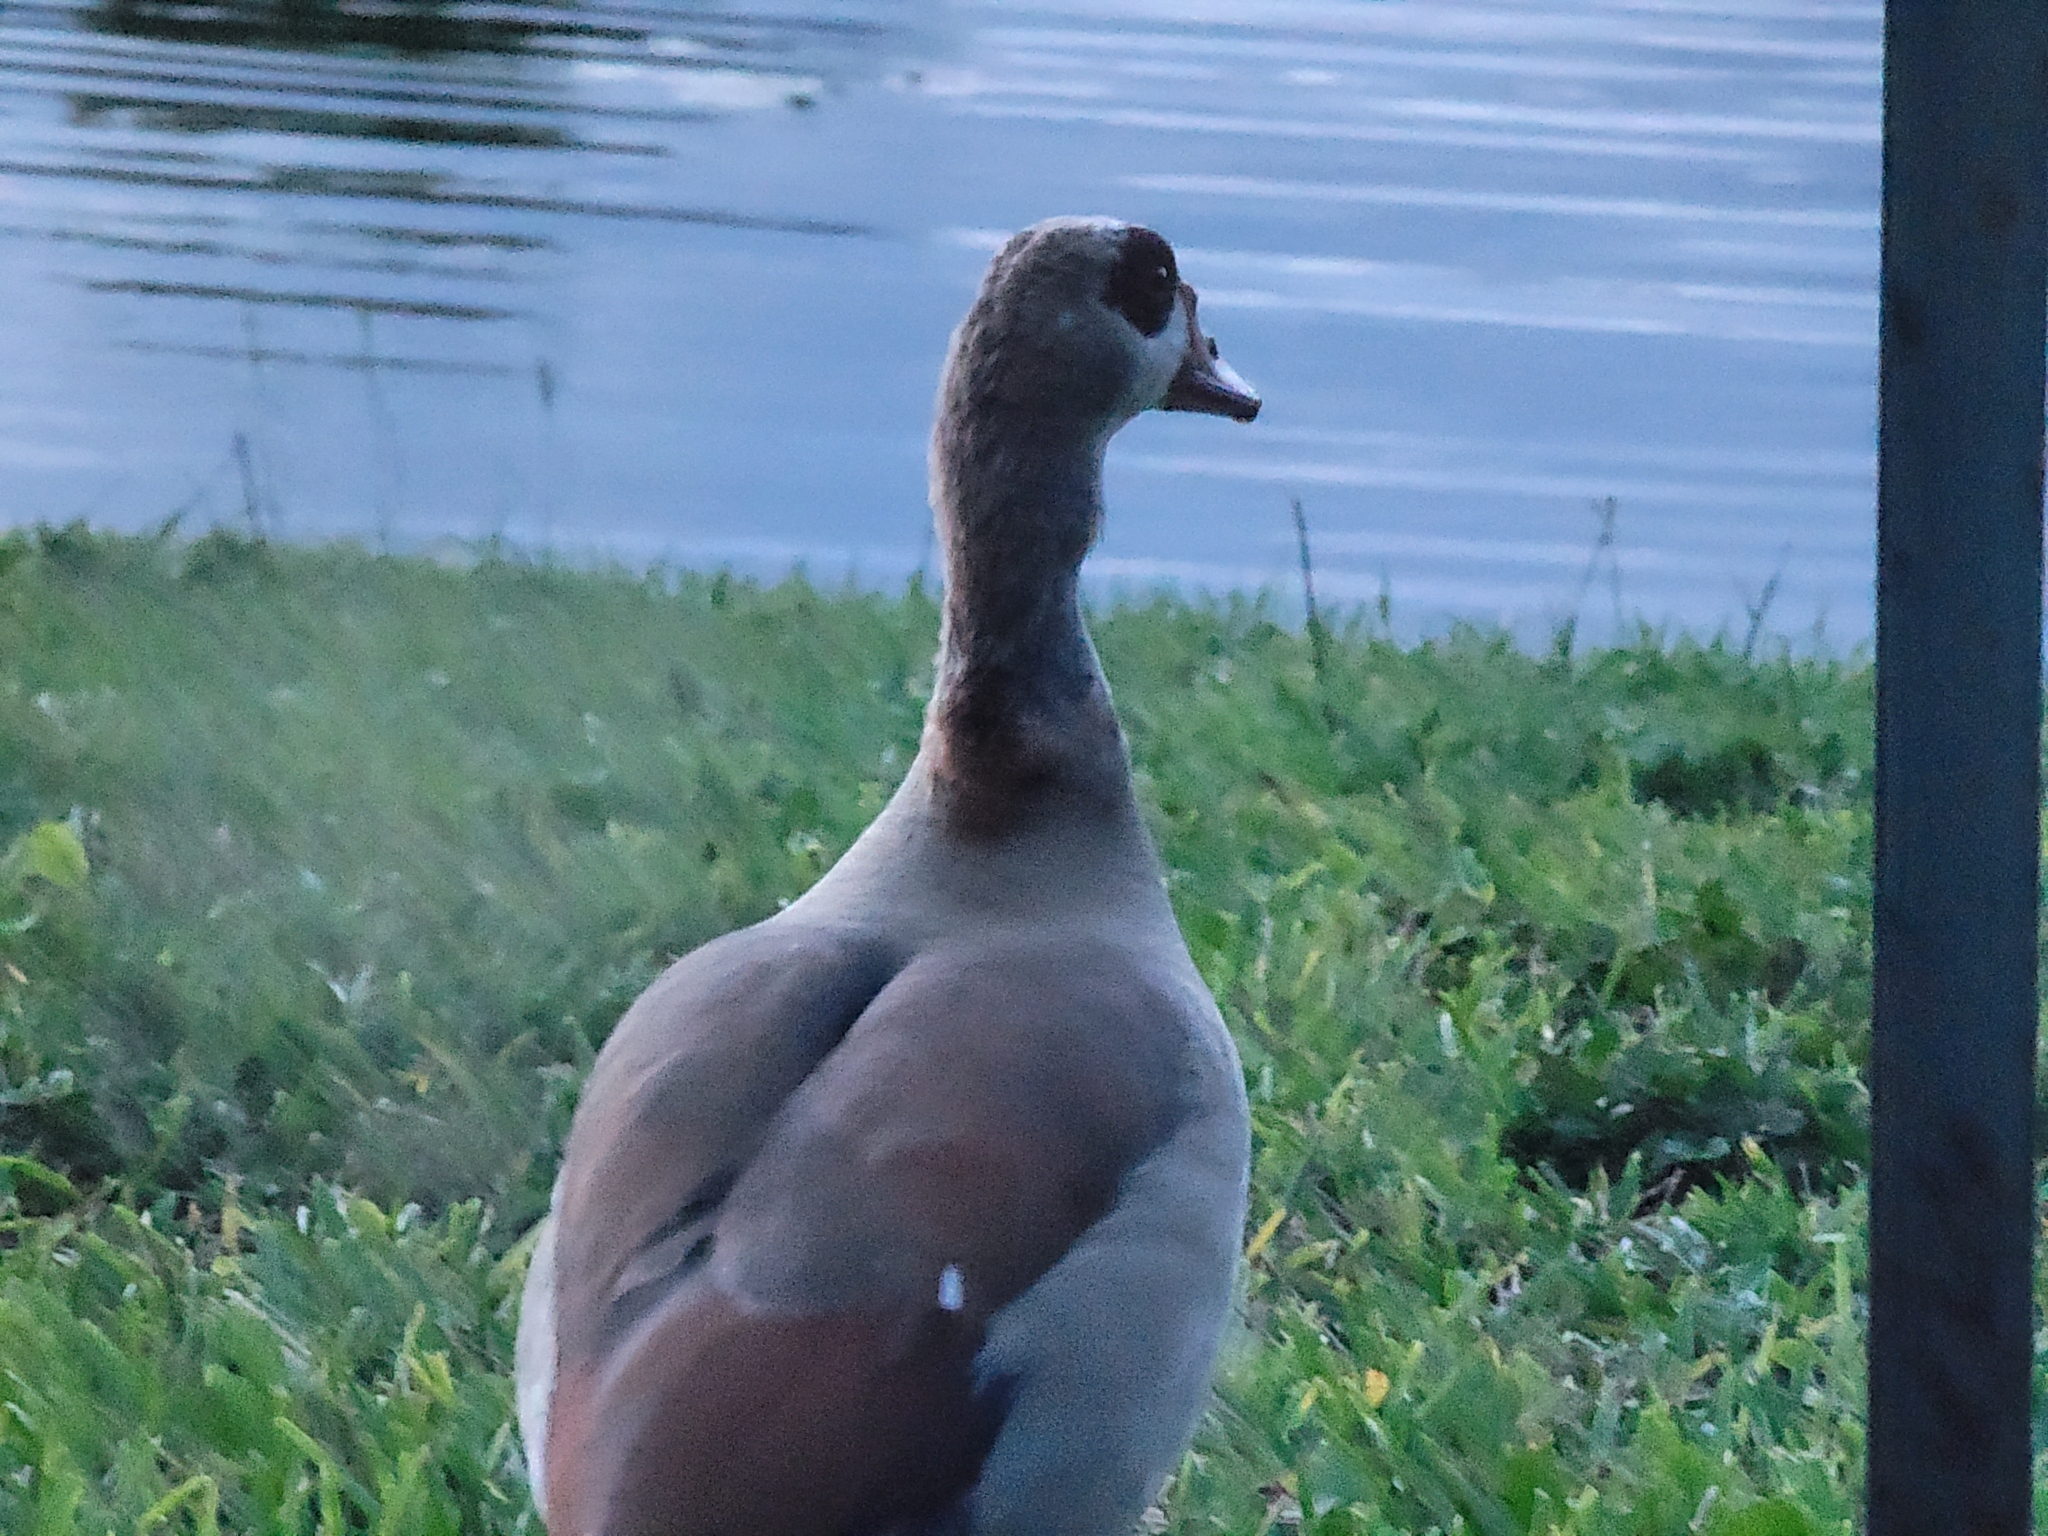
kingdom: Animalia
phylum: Chordata
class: Aves
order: Anseriformes
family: Anatidae
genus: Alopochen
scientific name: Alopochen aegyptiaca
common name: Egyptian goose
